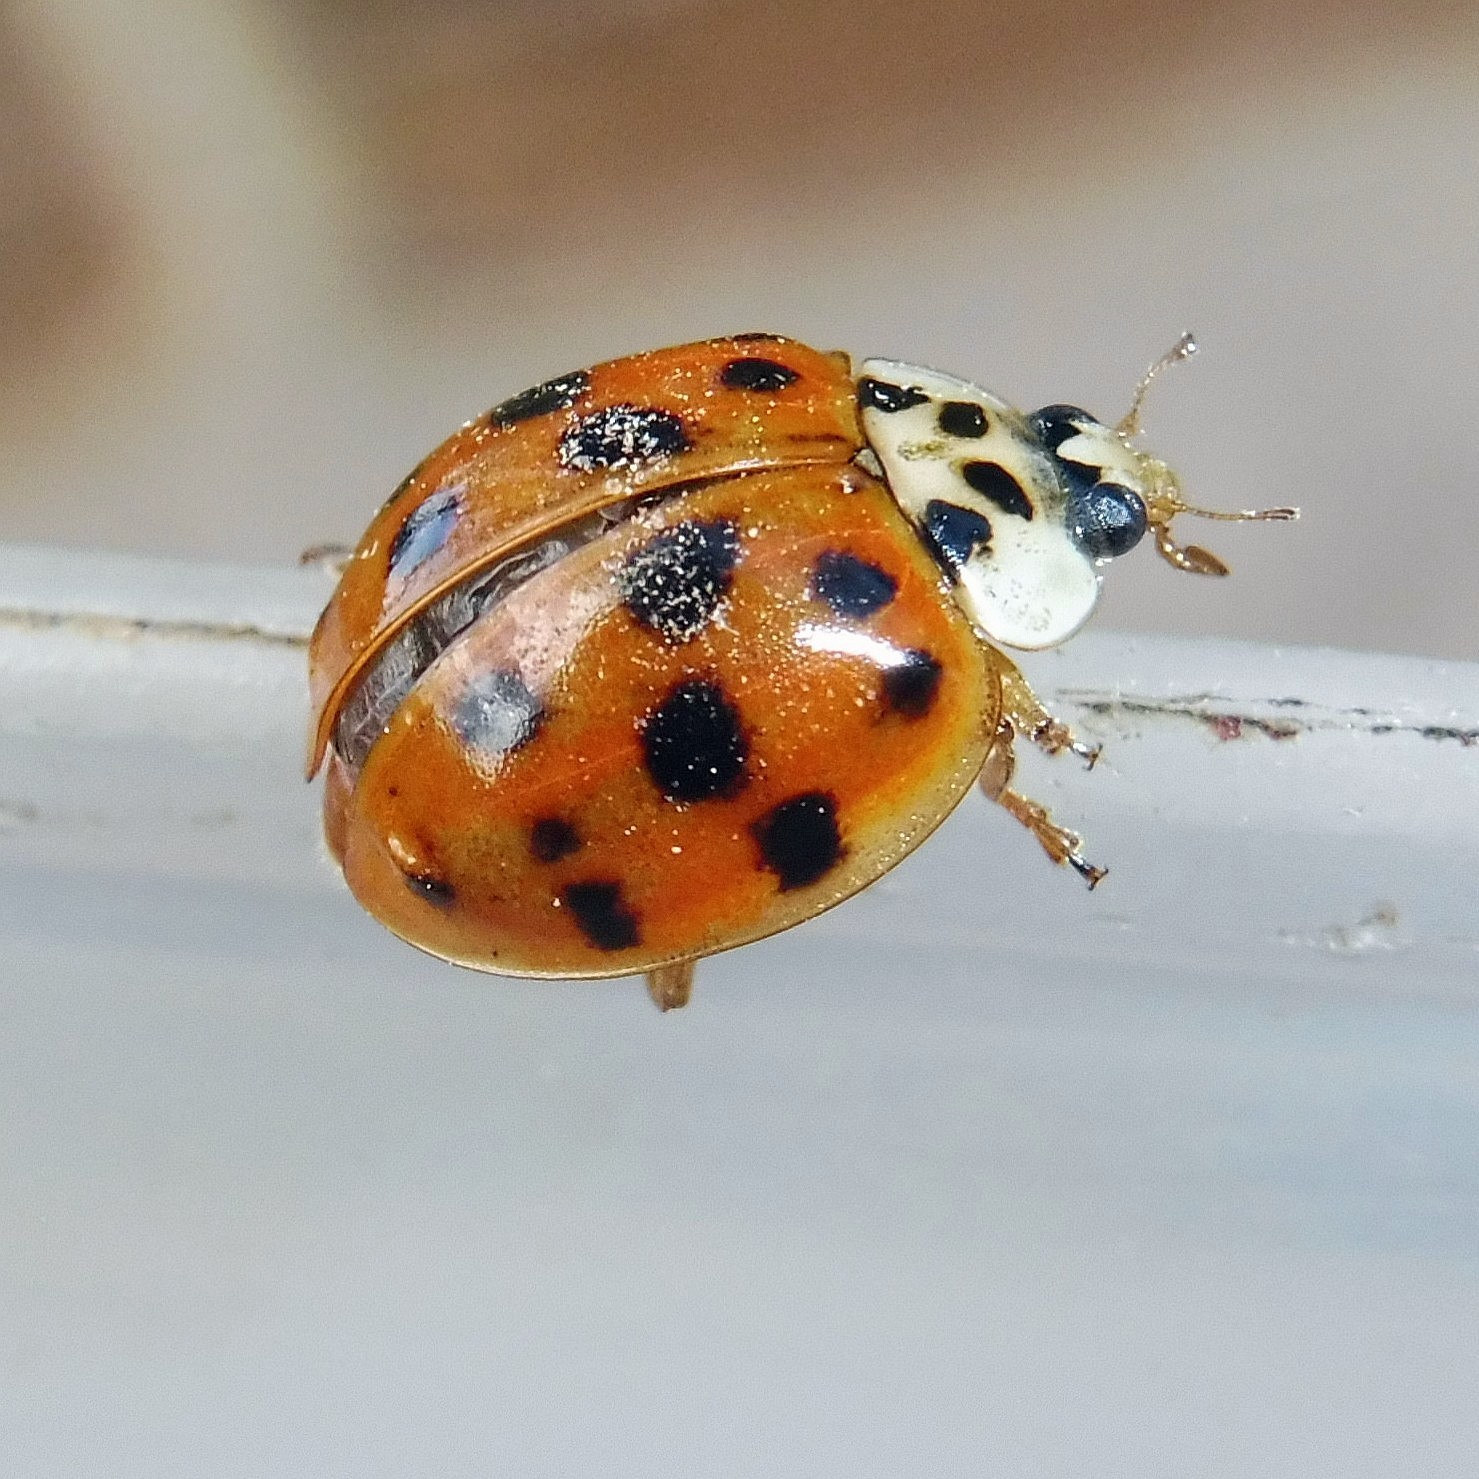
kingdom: Animalia
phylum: Arthropoda
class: Insecta
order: Coleoptera
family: Coccinellidae
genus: Harmonia
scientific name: Harmonia axyridis
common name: Harlequin ladybird
